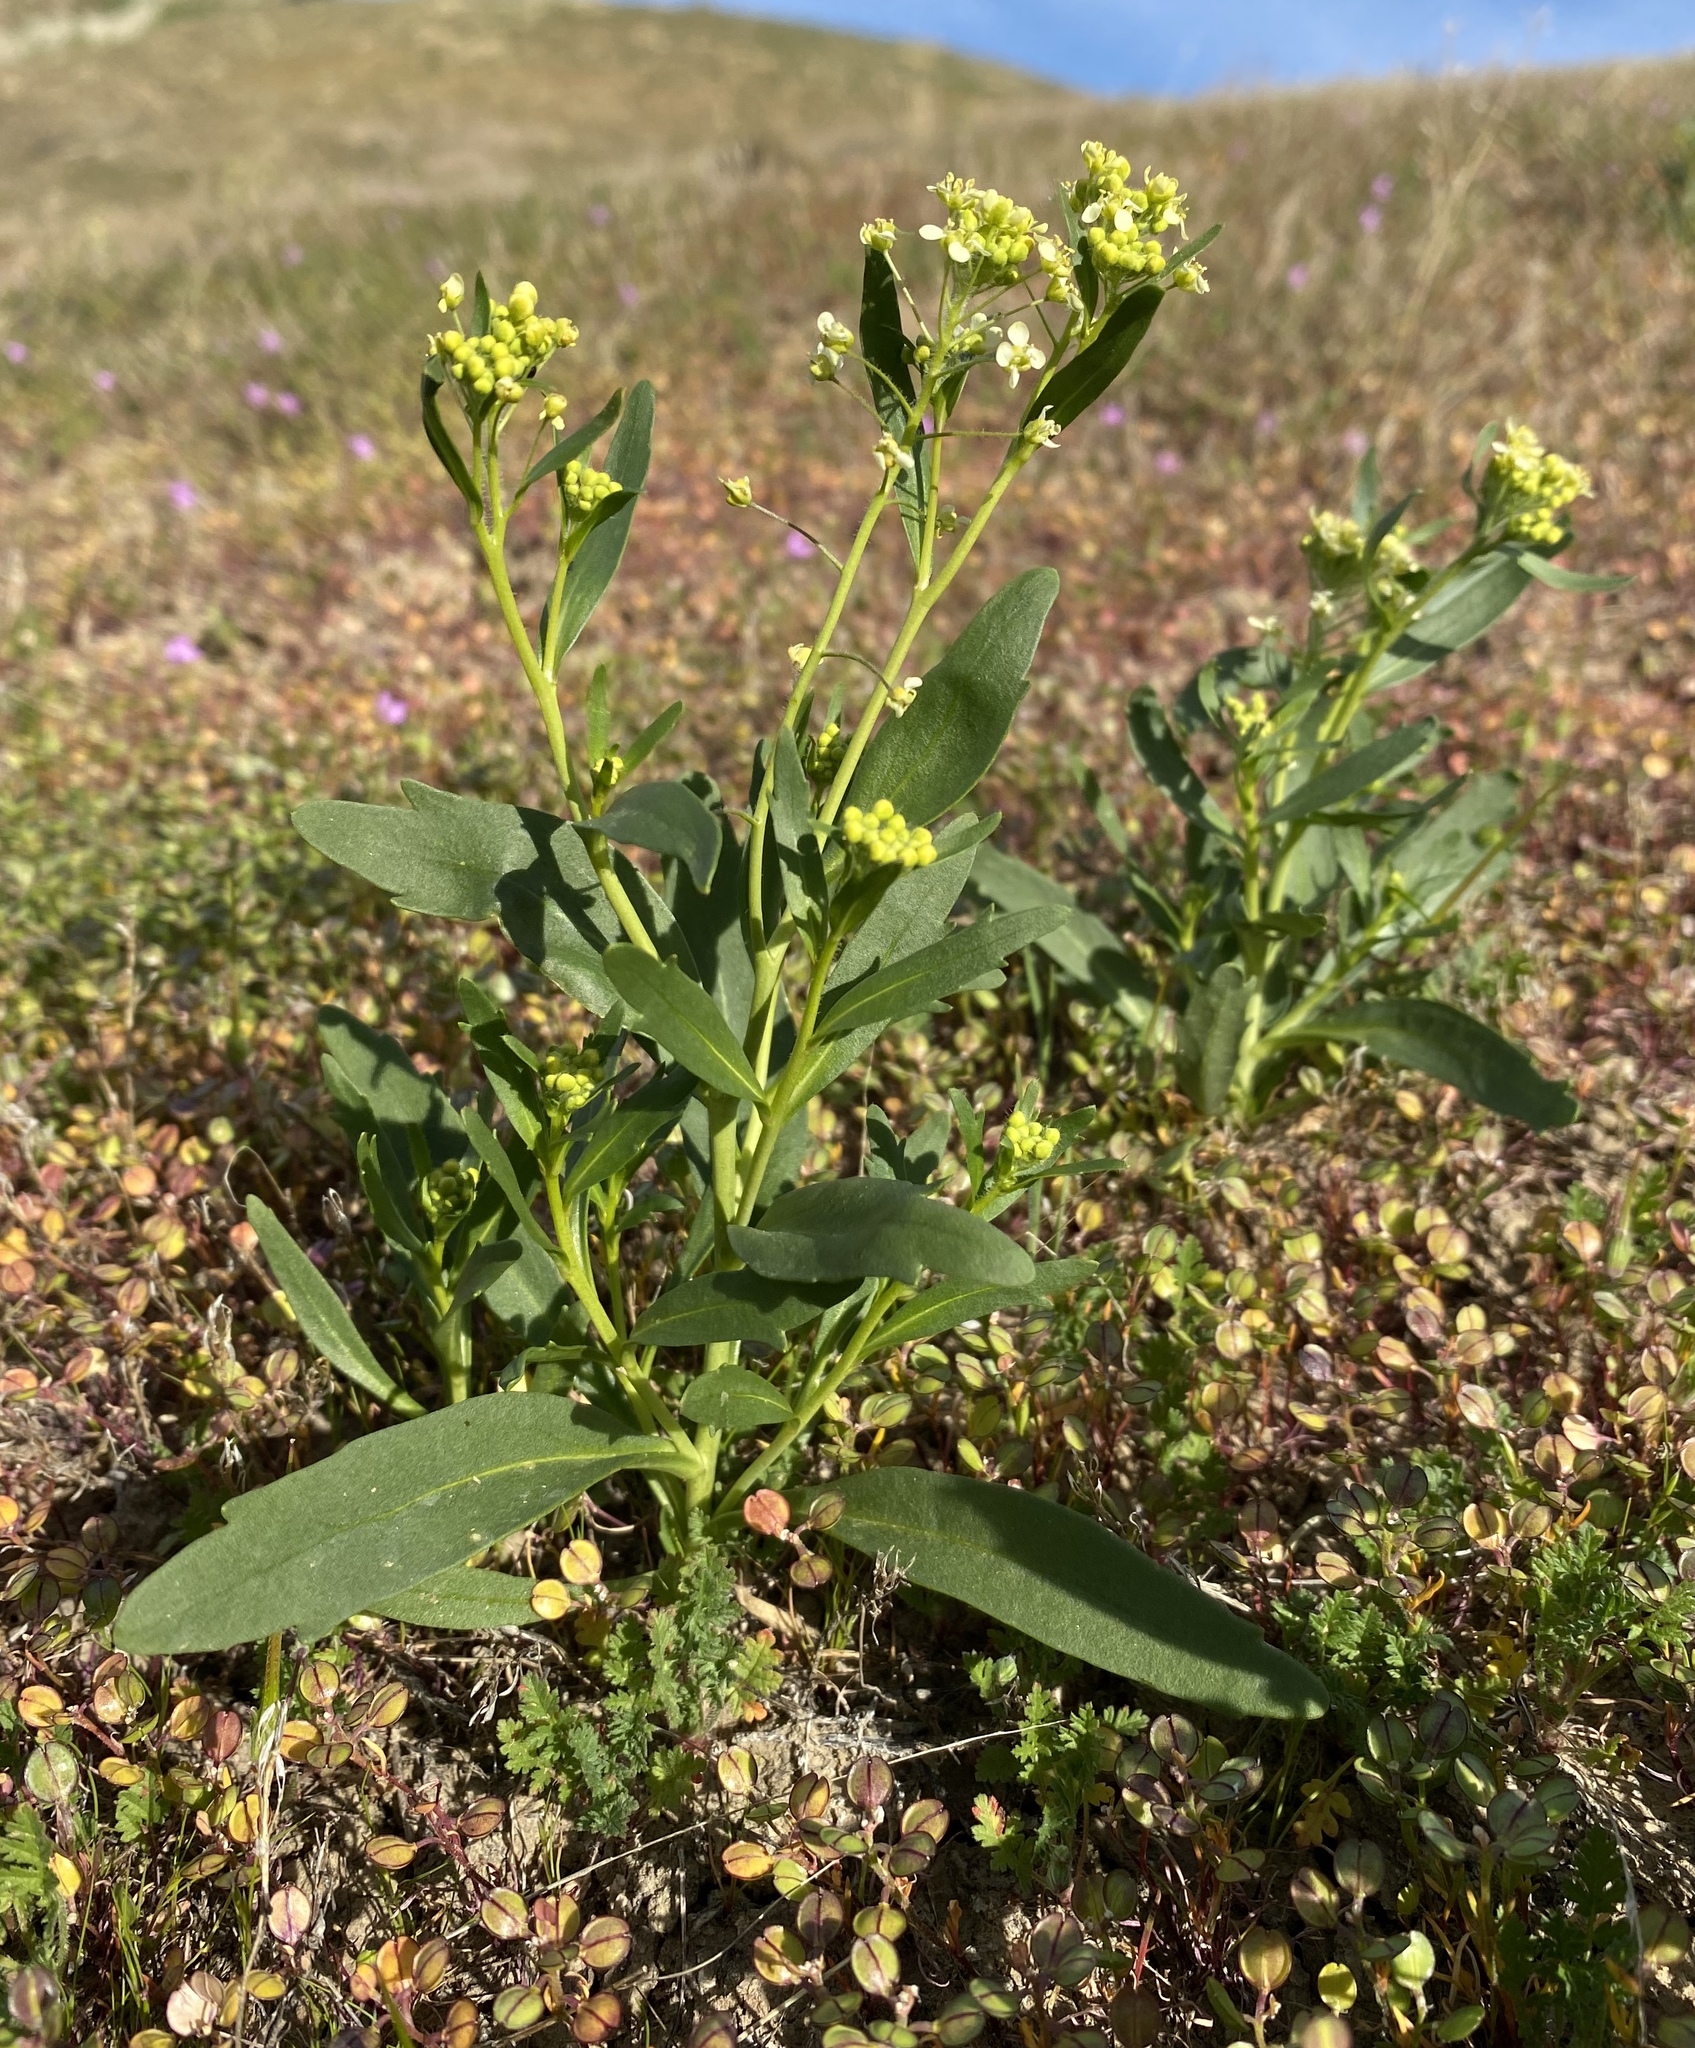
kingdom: Plantae
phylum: Tracheophyta
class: Magnoliopsida
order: Brassicales
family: Brassicaceae
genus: Lepidium
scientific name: Lepidium jaredii
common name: Jared's peppergrass
